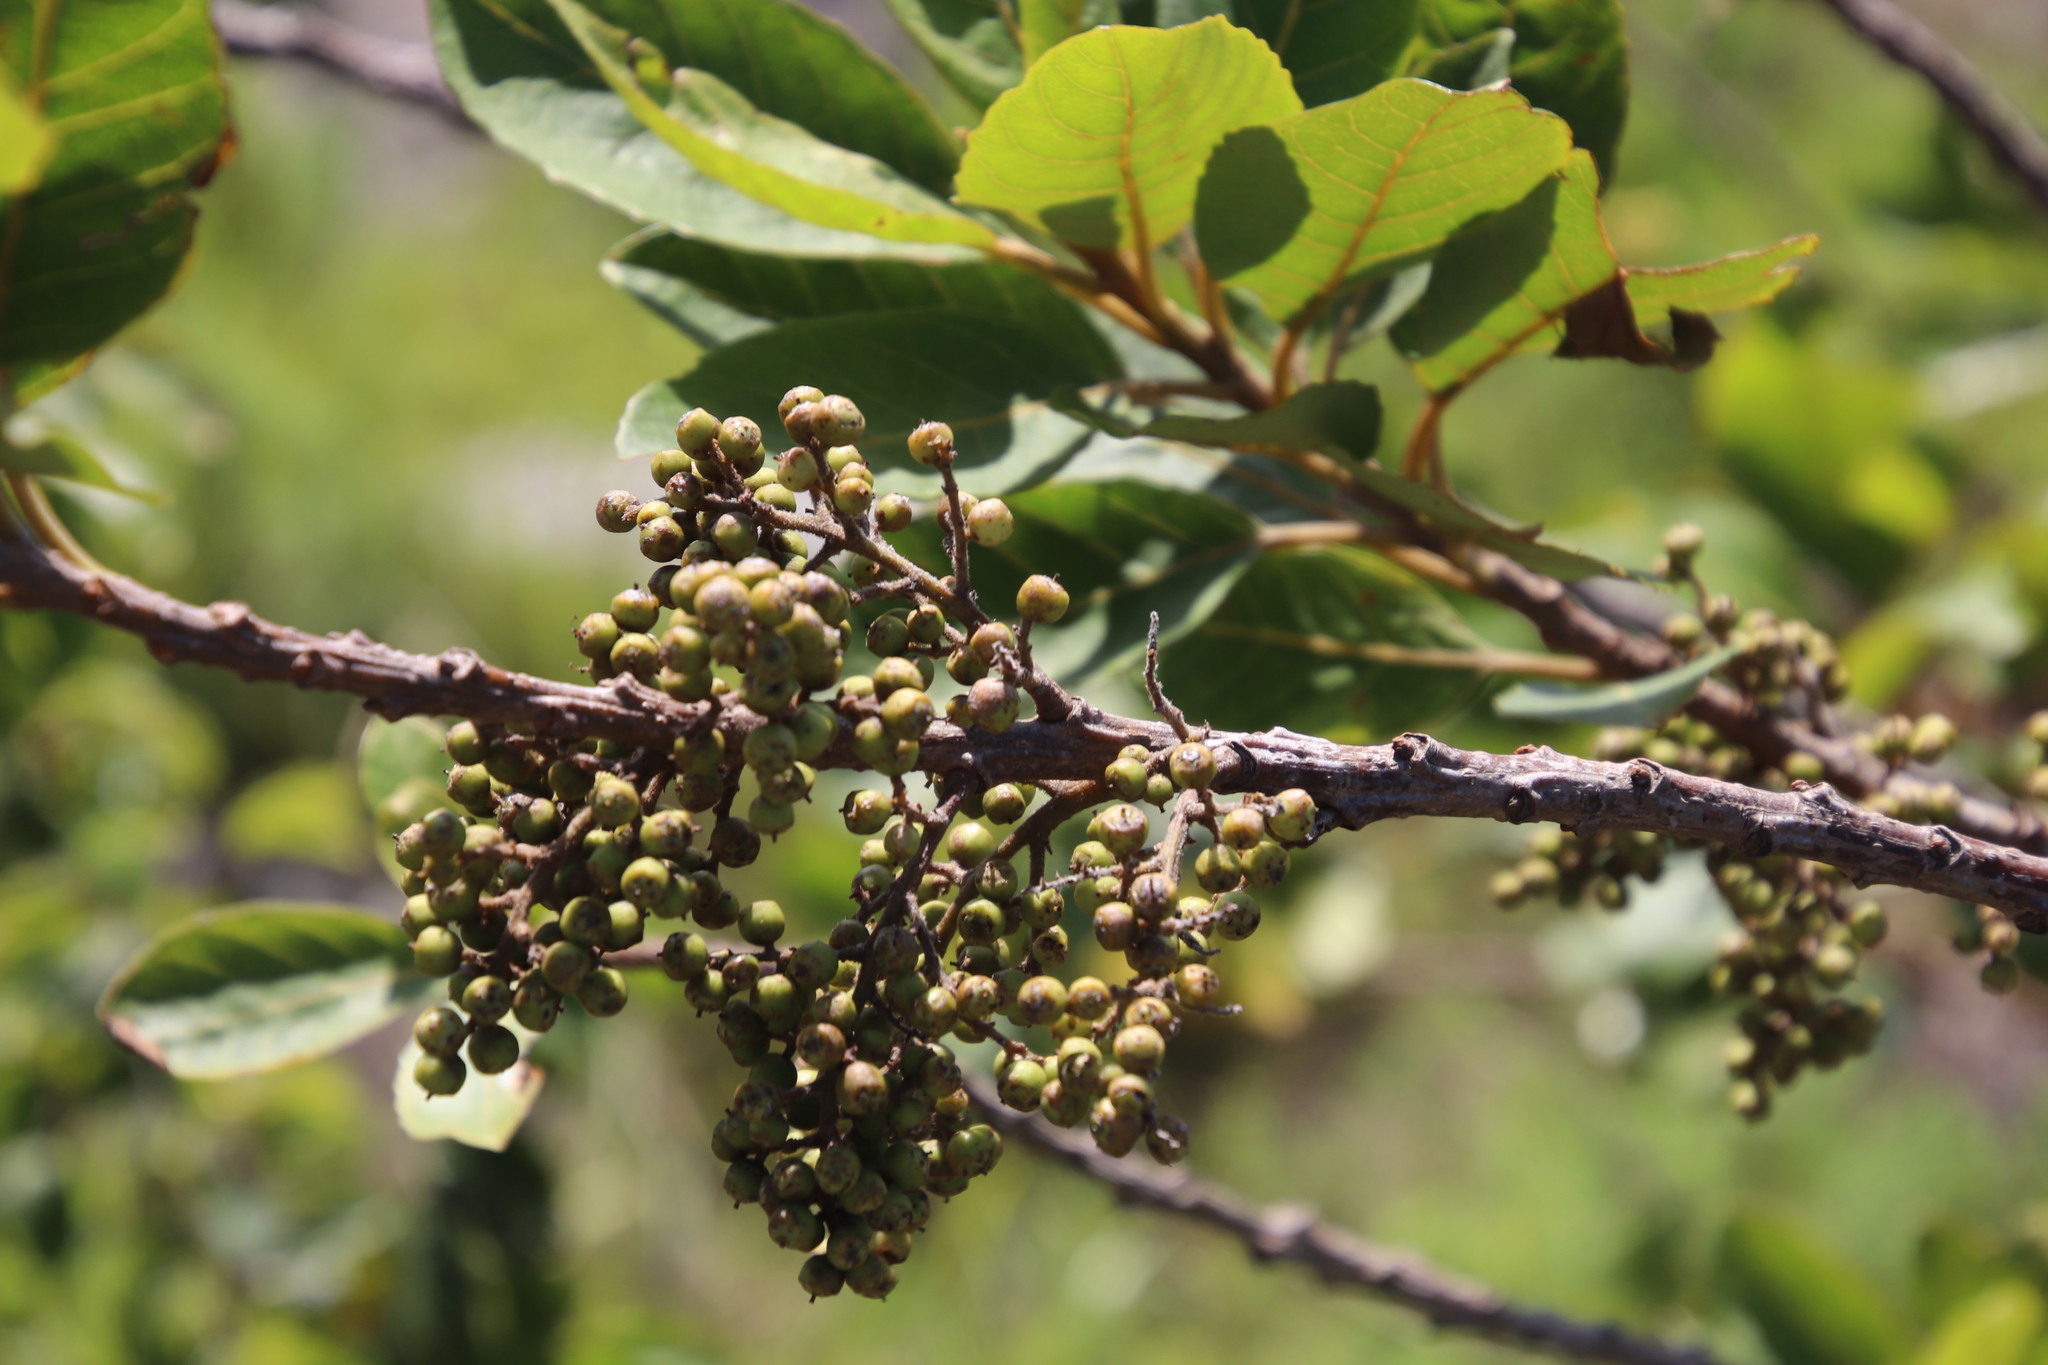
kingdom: Plantae
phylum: Tracheophyta
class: Magnoliopsida
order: Ericales
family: Primulaceae
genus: Maesa
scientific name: Maesa lanceolata
